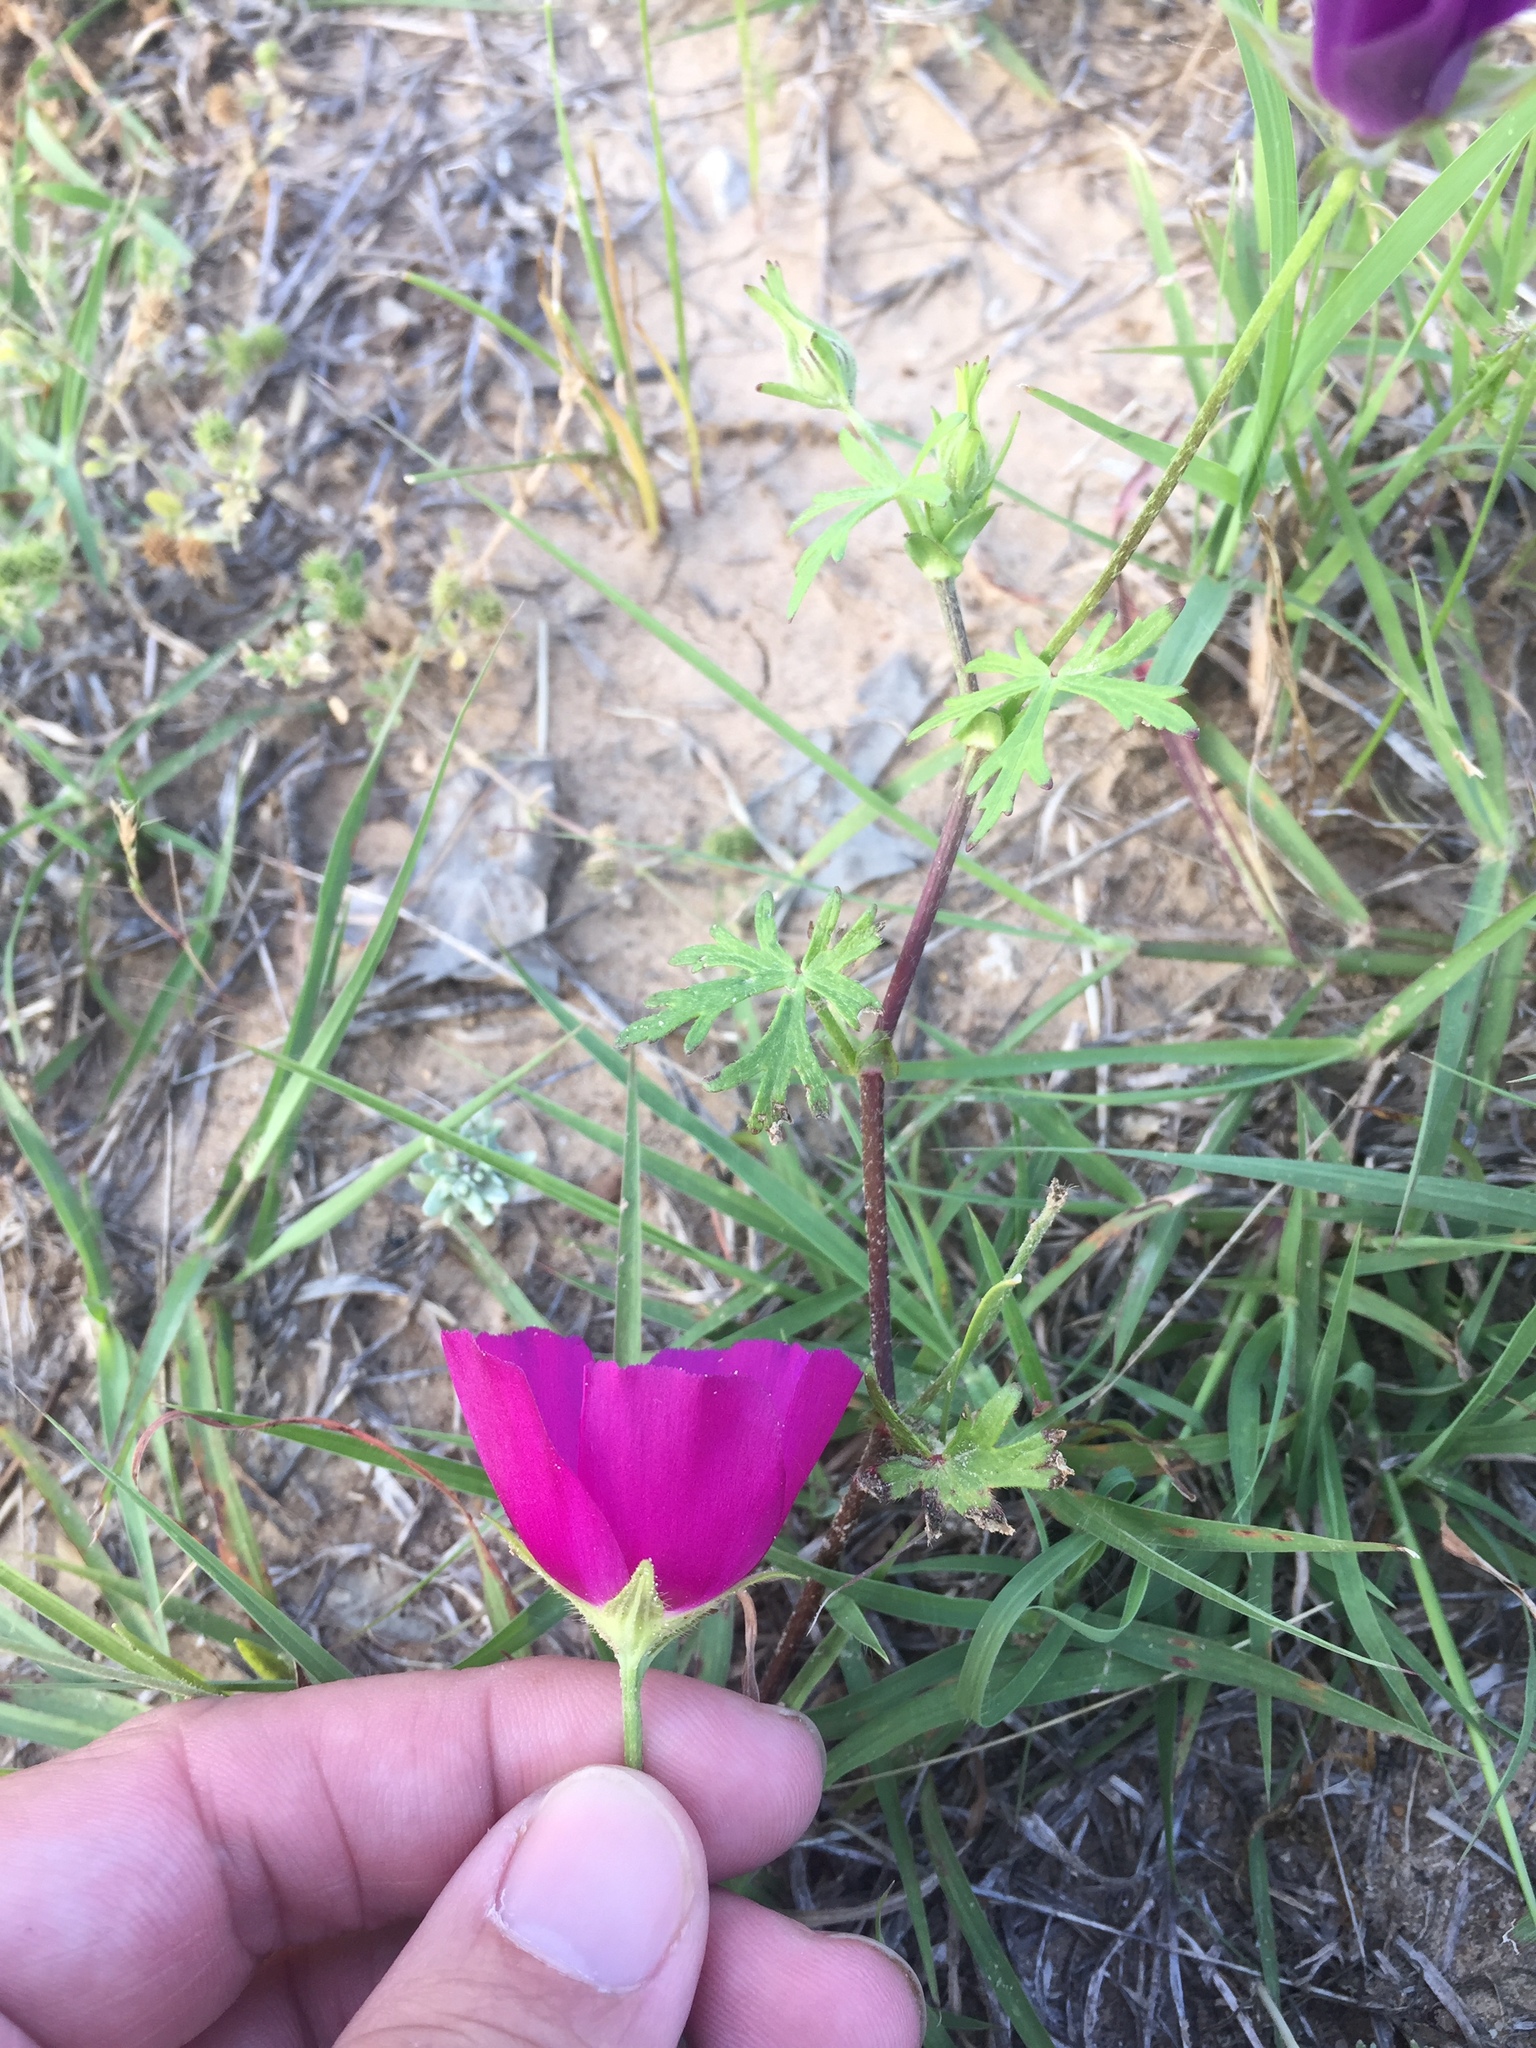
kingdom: Plantae
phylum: Tracheophyta
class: Magnoliopsida
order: Malvales
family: Malvaceae
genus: Callirhoe
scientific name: Callirhoe involucrata
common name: Purple poppy-mallow
